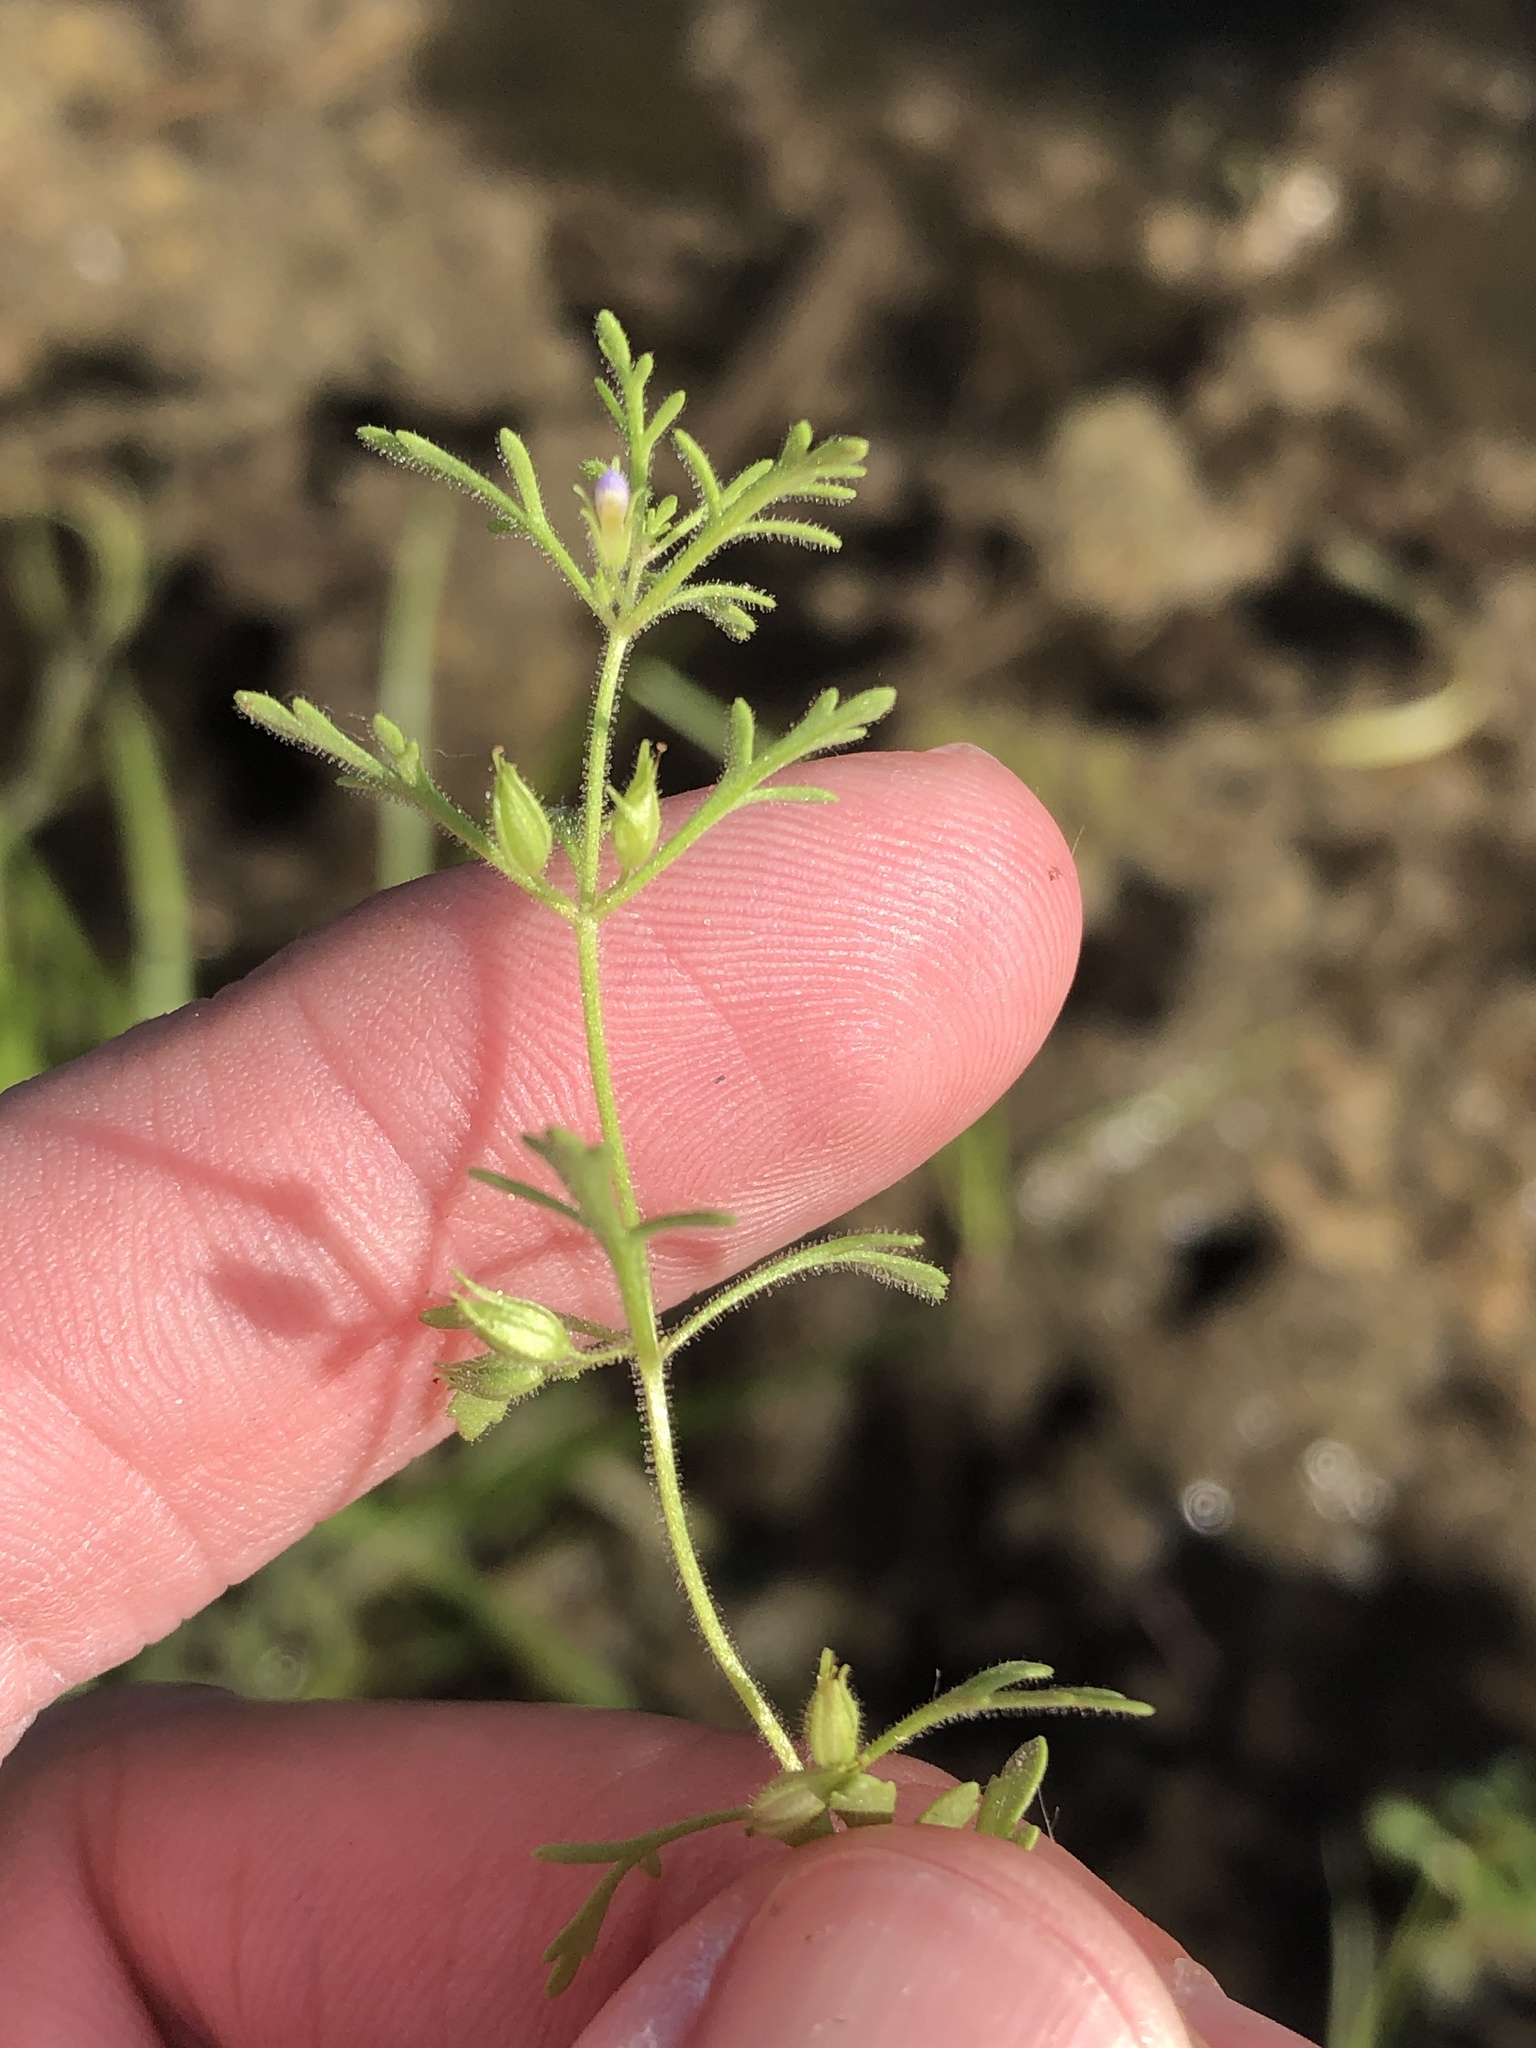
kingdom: Plantae
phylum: Tracheophyta
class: Magnoliopsida
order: Lamiales
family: Plantaginaceae
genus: Leucospora
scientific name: Leucospora multifida
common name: Narrow-leaf paleseed
